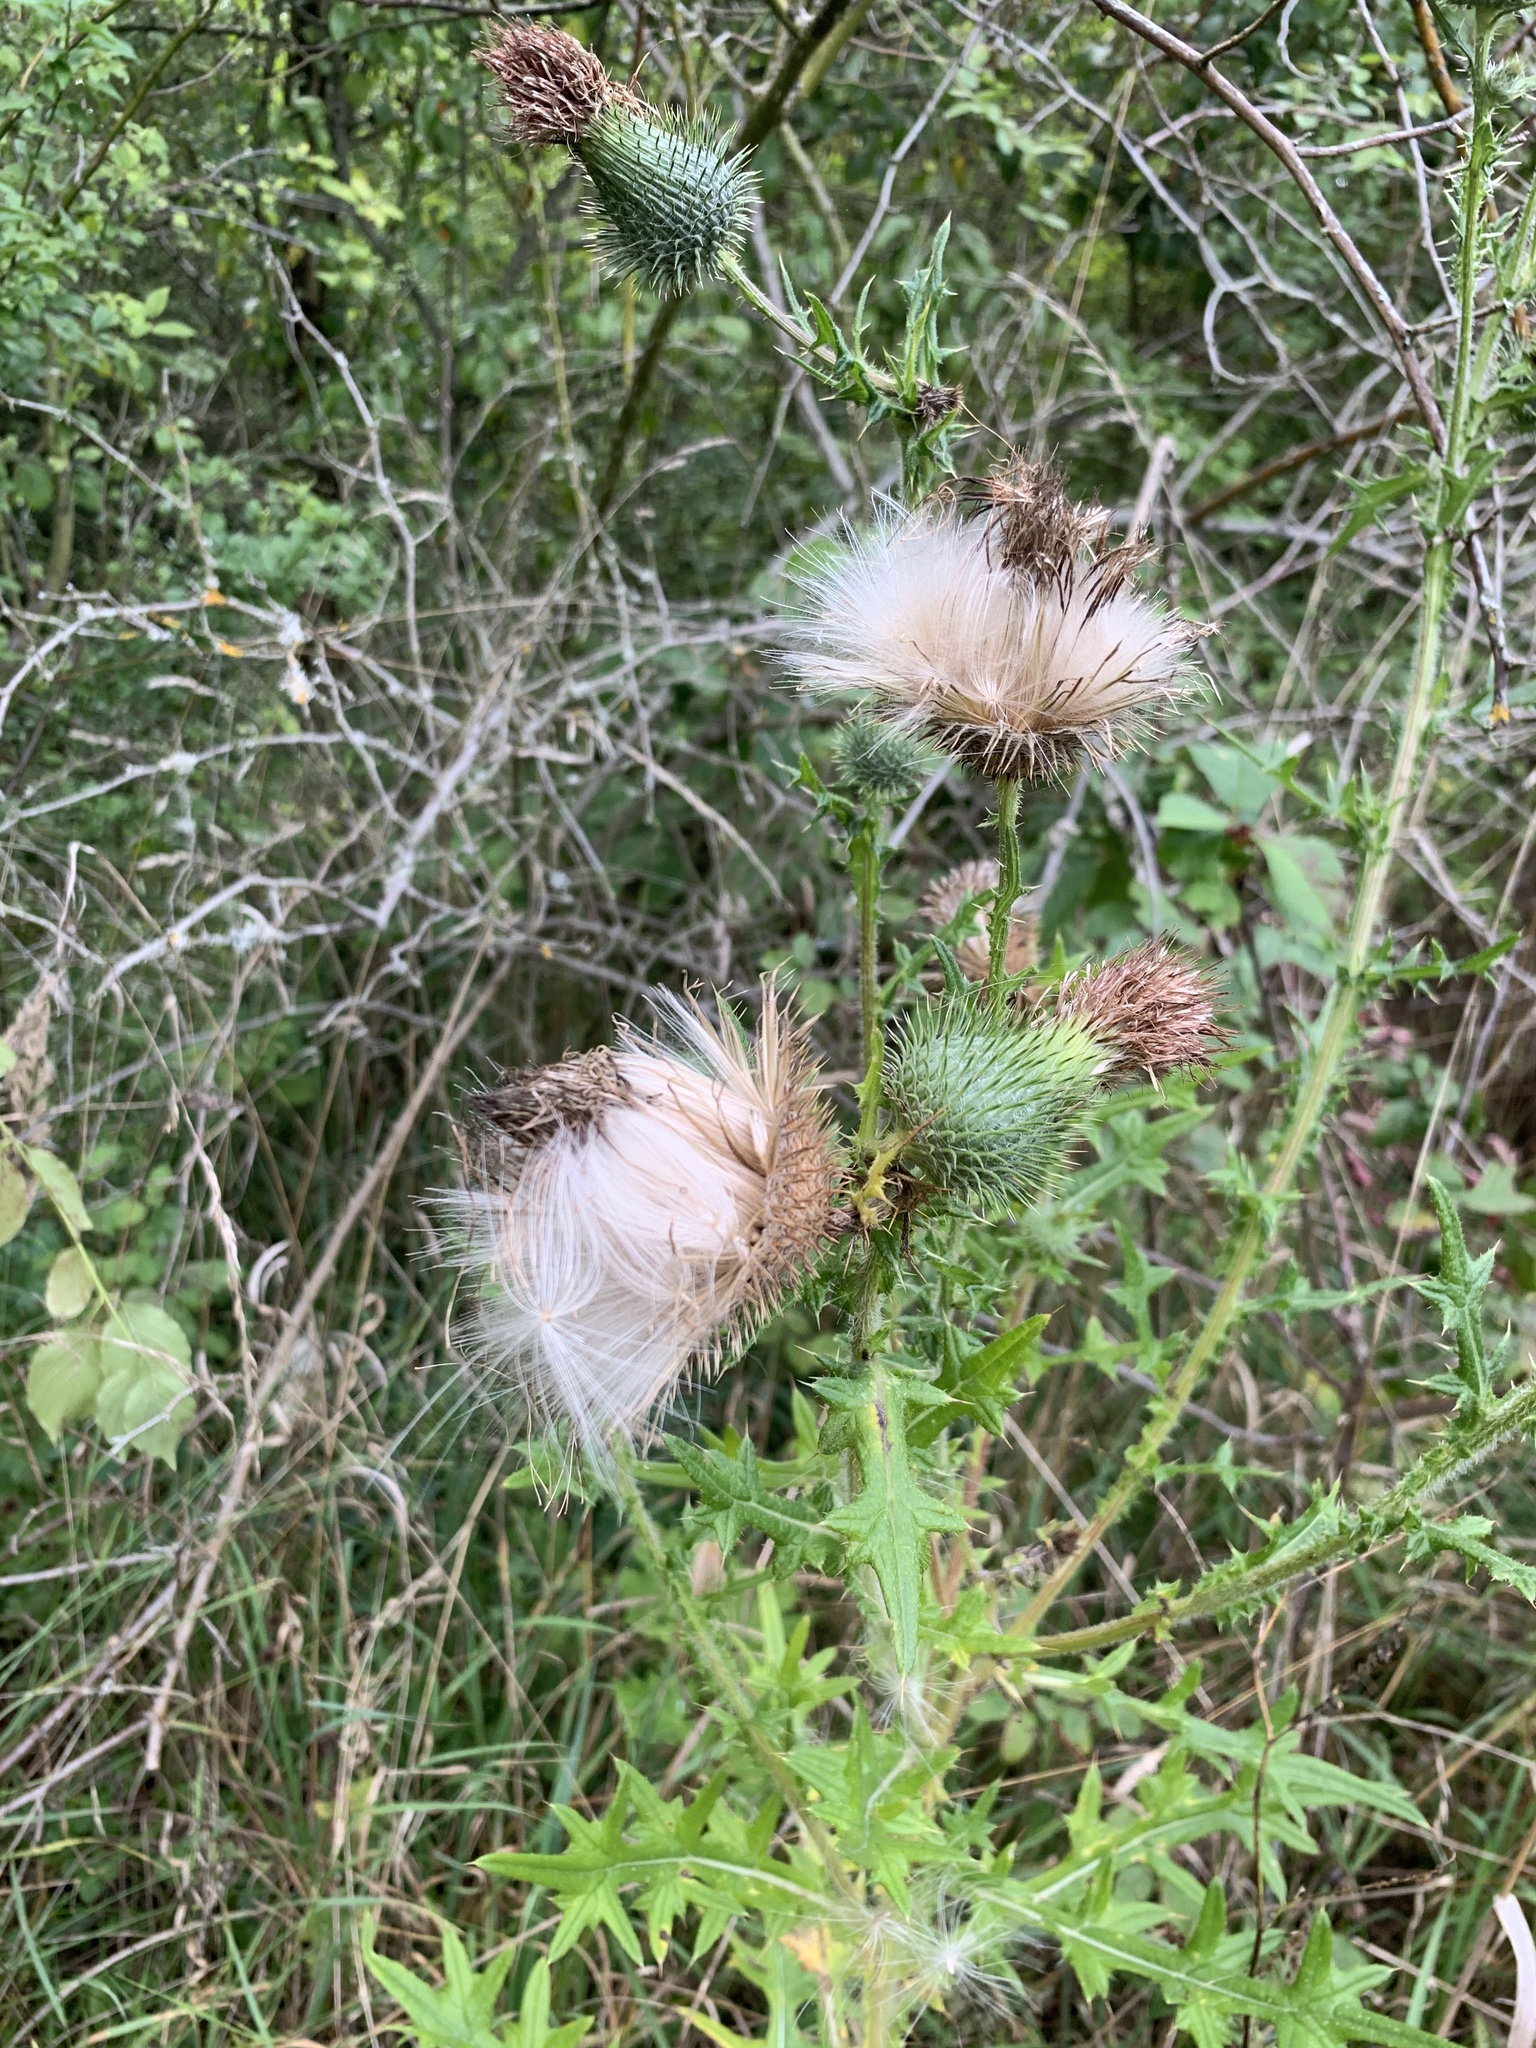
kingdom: Plantae
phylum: Tracheophyta
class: Magnoliopsida
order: Asterales
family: Asteraceae
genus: Cirsium
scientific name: Cirsium vulgare
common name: Bull thistle
